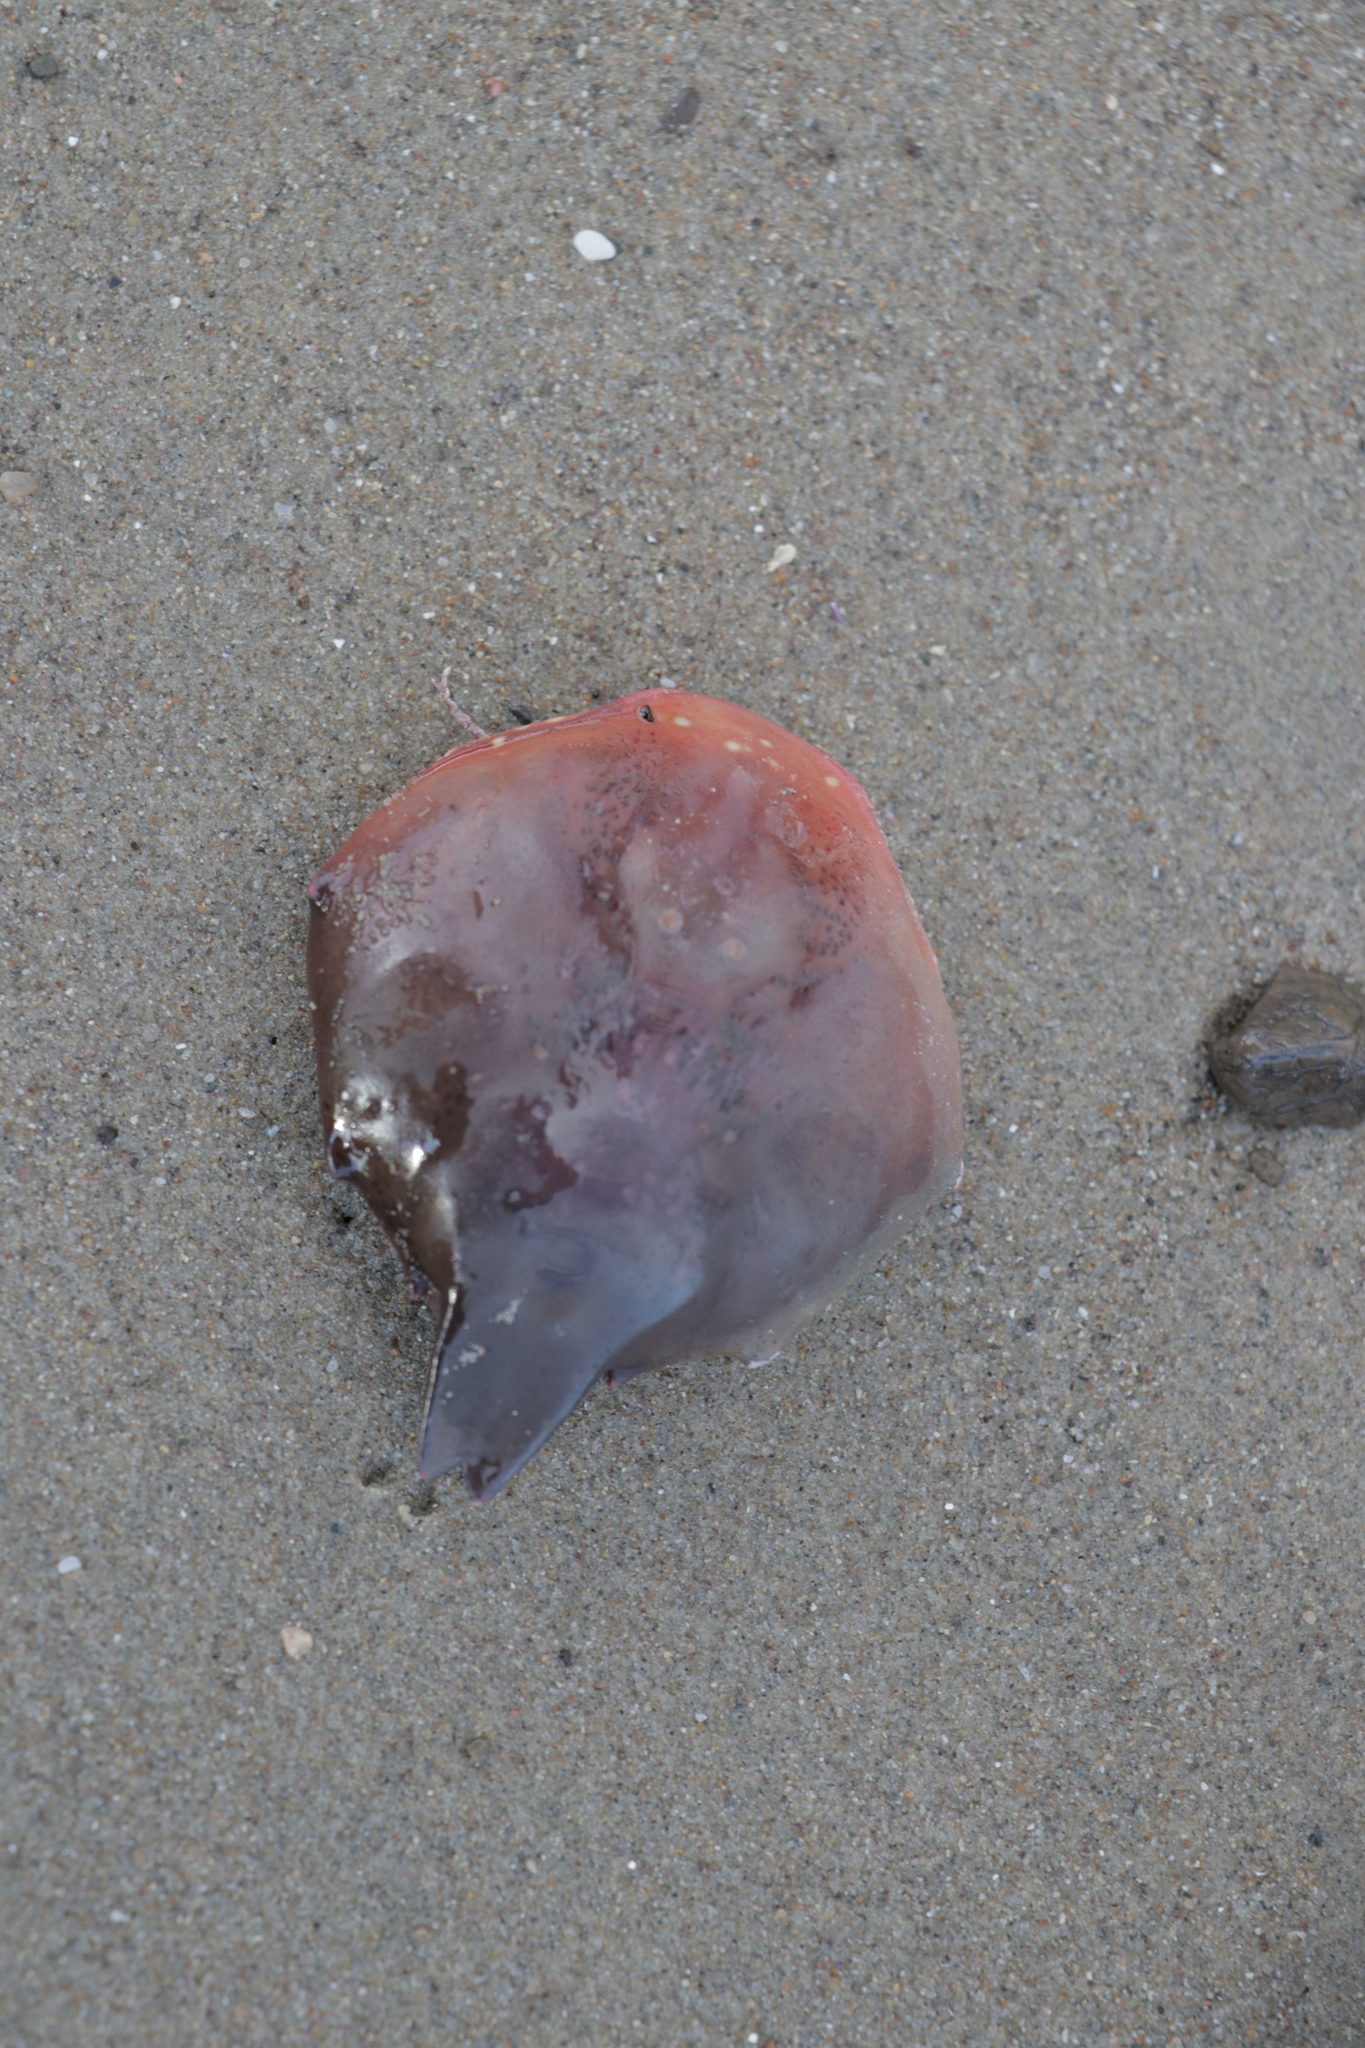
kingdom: Animalia
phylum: Arthropoda
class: Malacostraca
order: Decapoda
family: Epialtidae
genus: Taliepus
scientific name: Taliepus nuttallii
